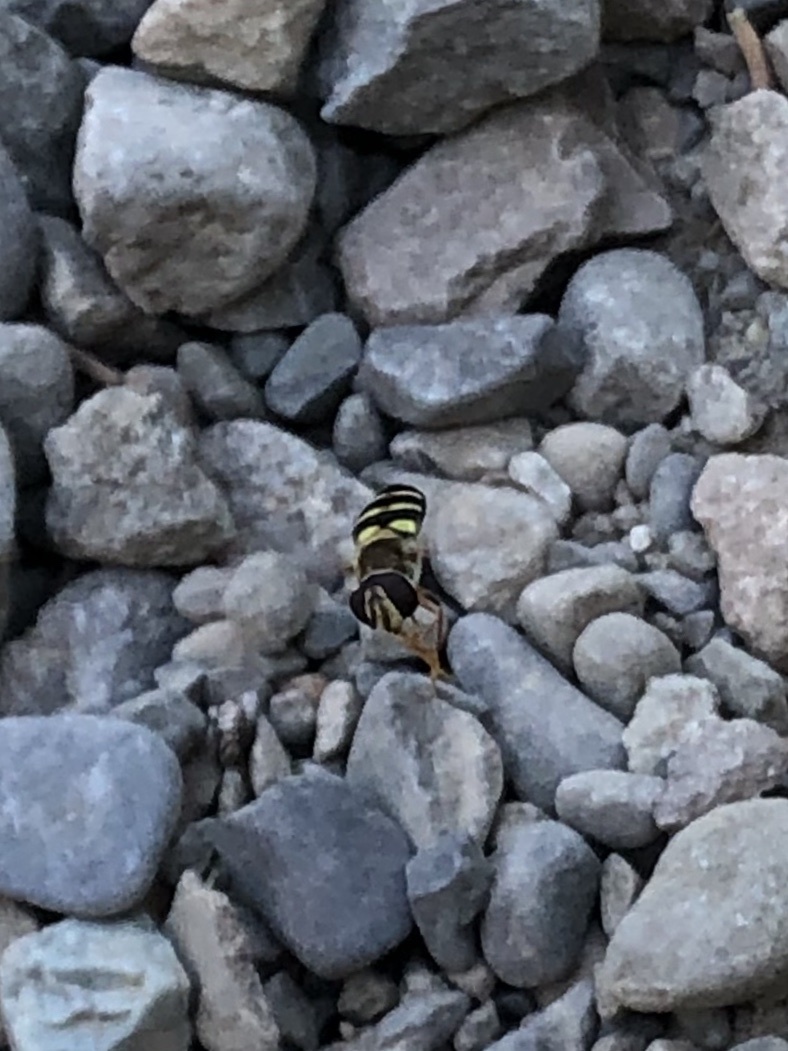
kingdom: Animalia
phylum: Arthropoda
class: Insecta
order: Diptera
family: Syrphidae
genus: Eupeodes
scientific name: Eupeodes fumipennis
